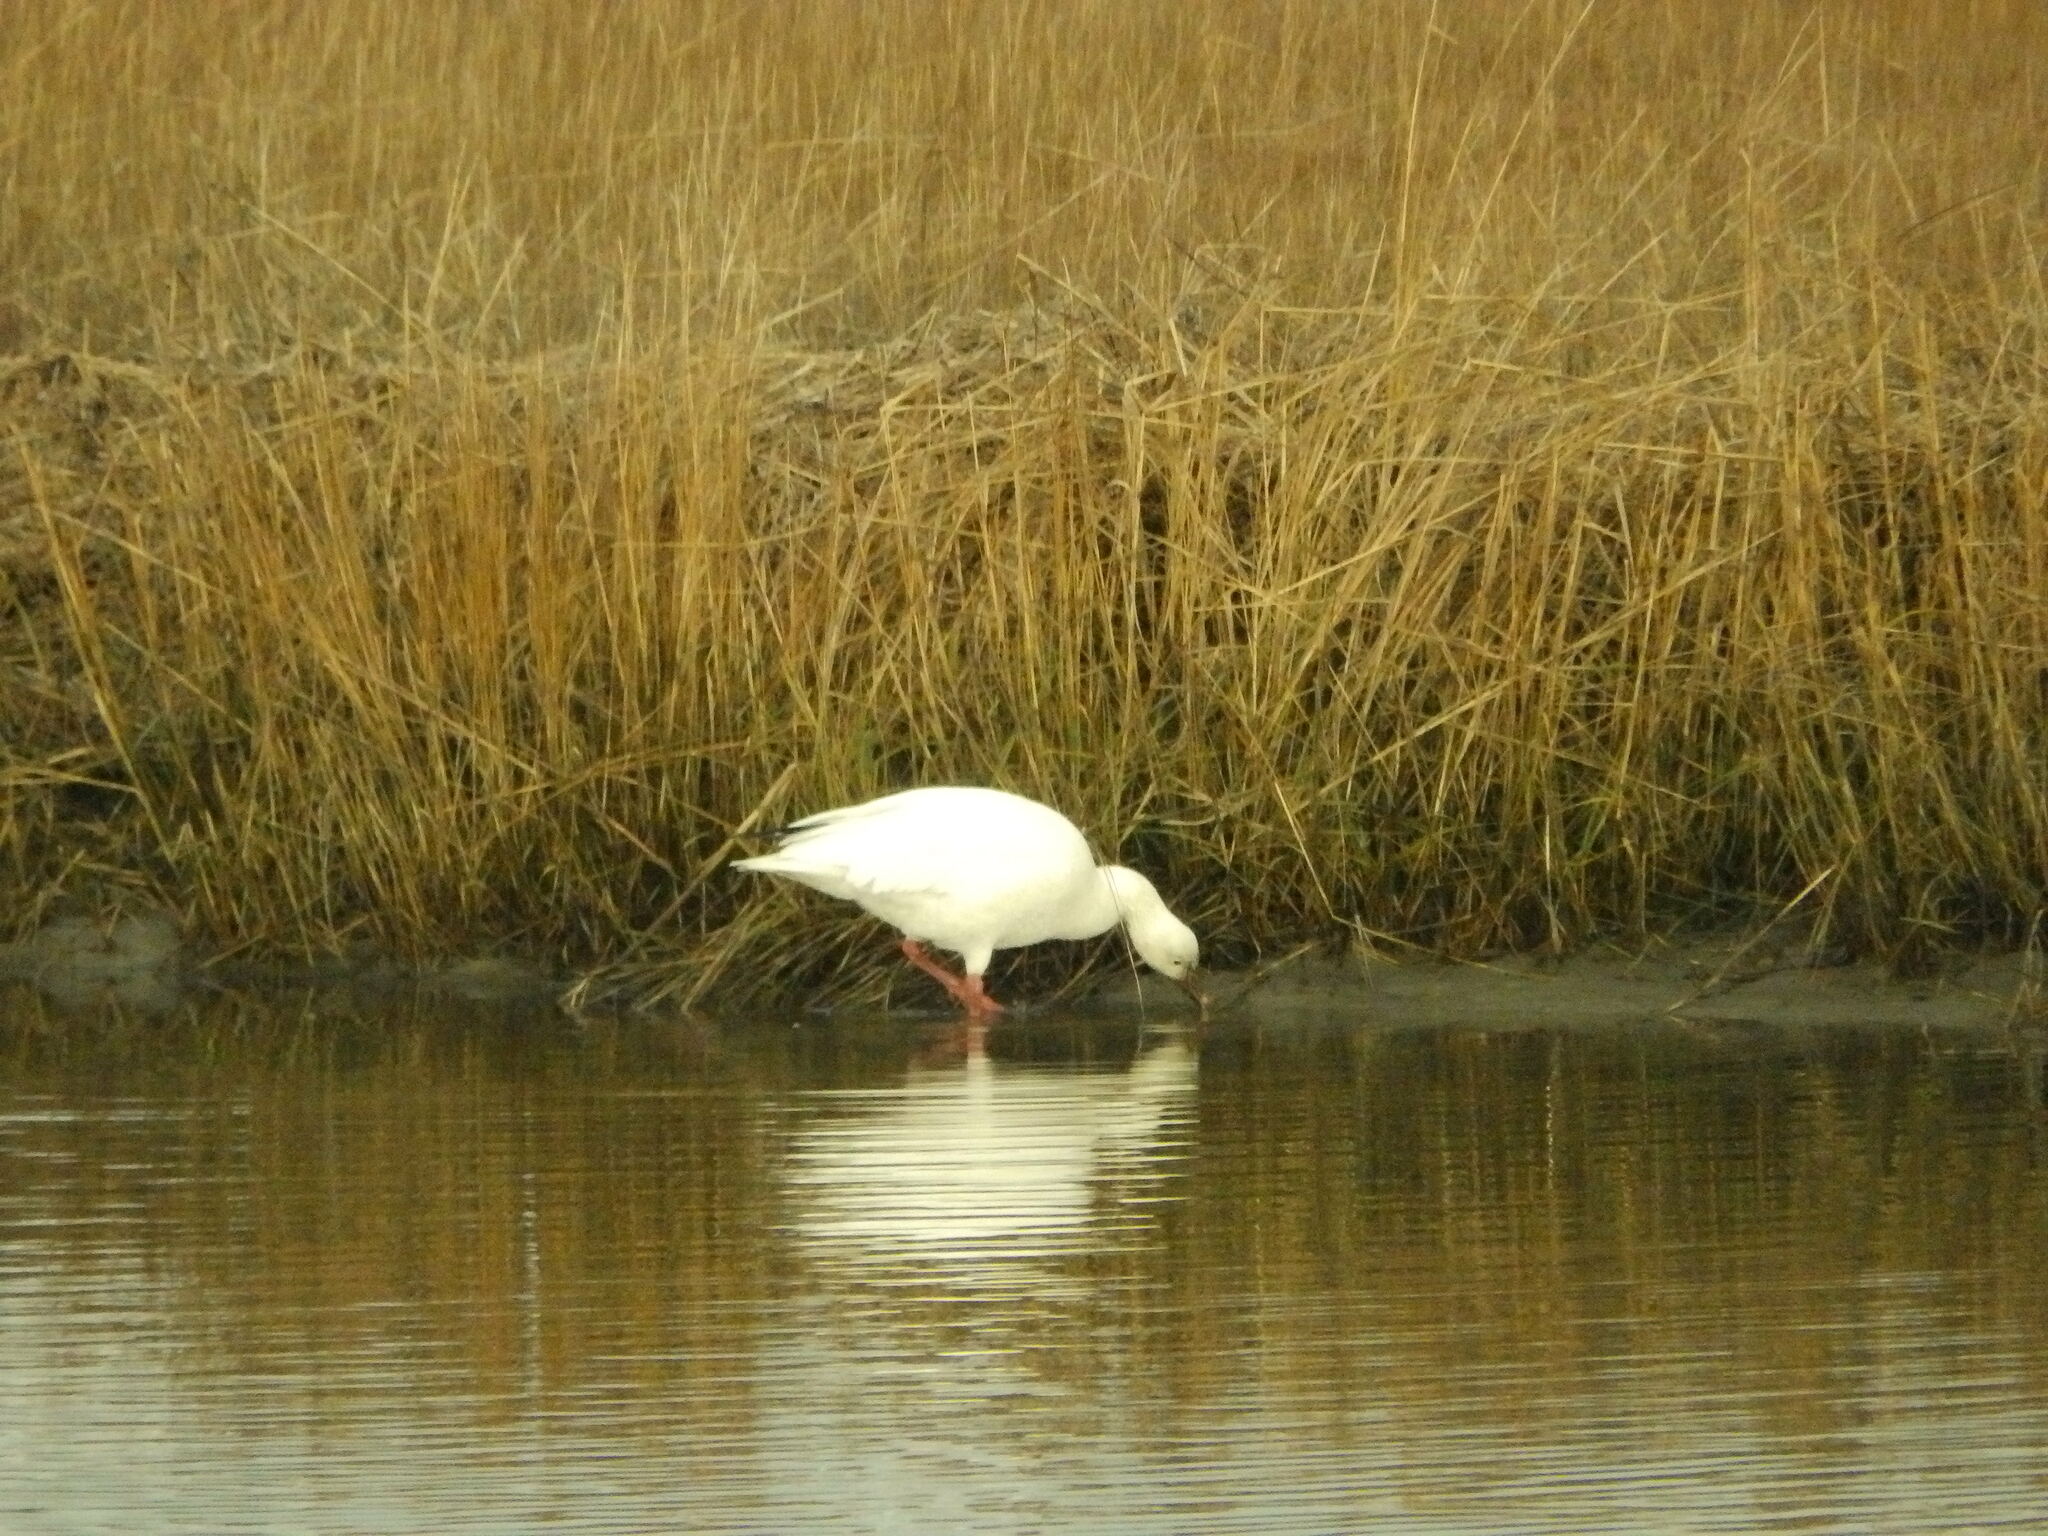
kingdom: Animalia
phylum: Chordata
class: Aves
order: Anseriformes
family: Anatidae
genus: Anser
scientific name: Anser caerulescens
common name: Snow goose
